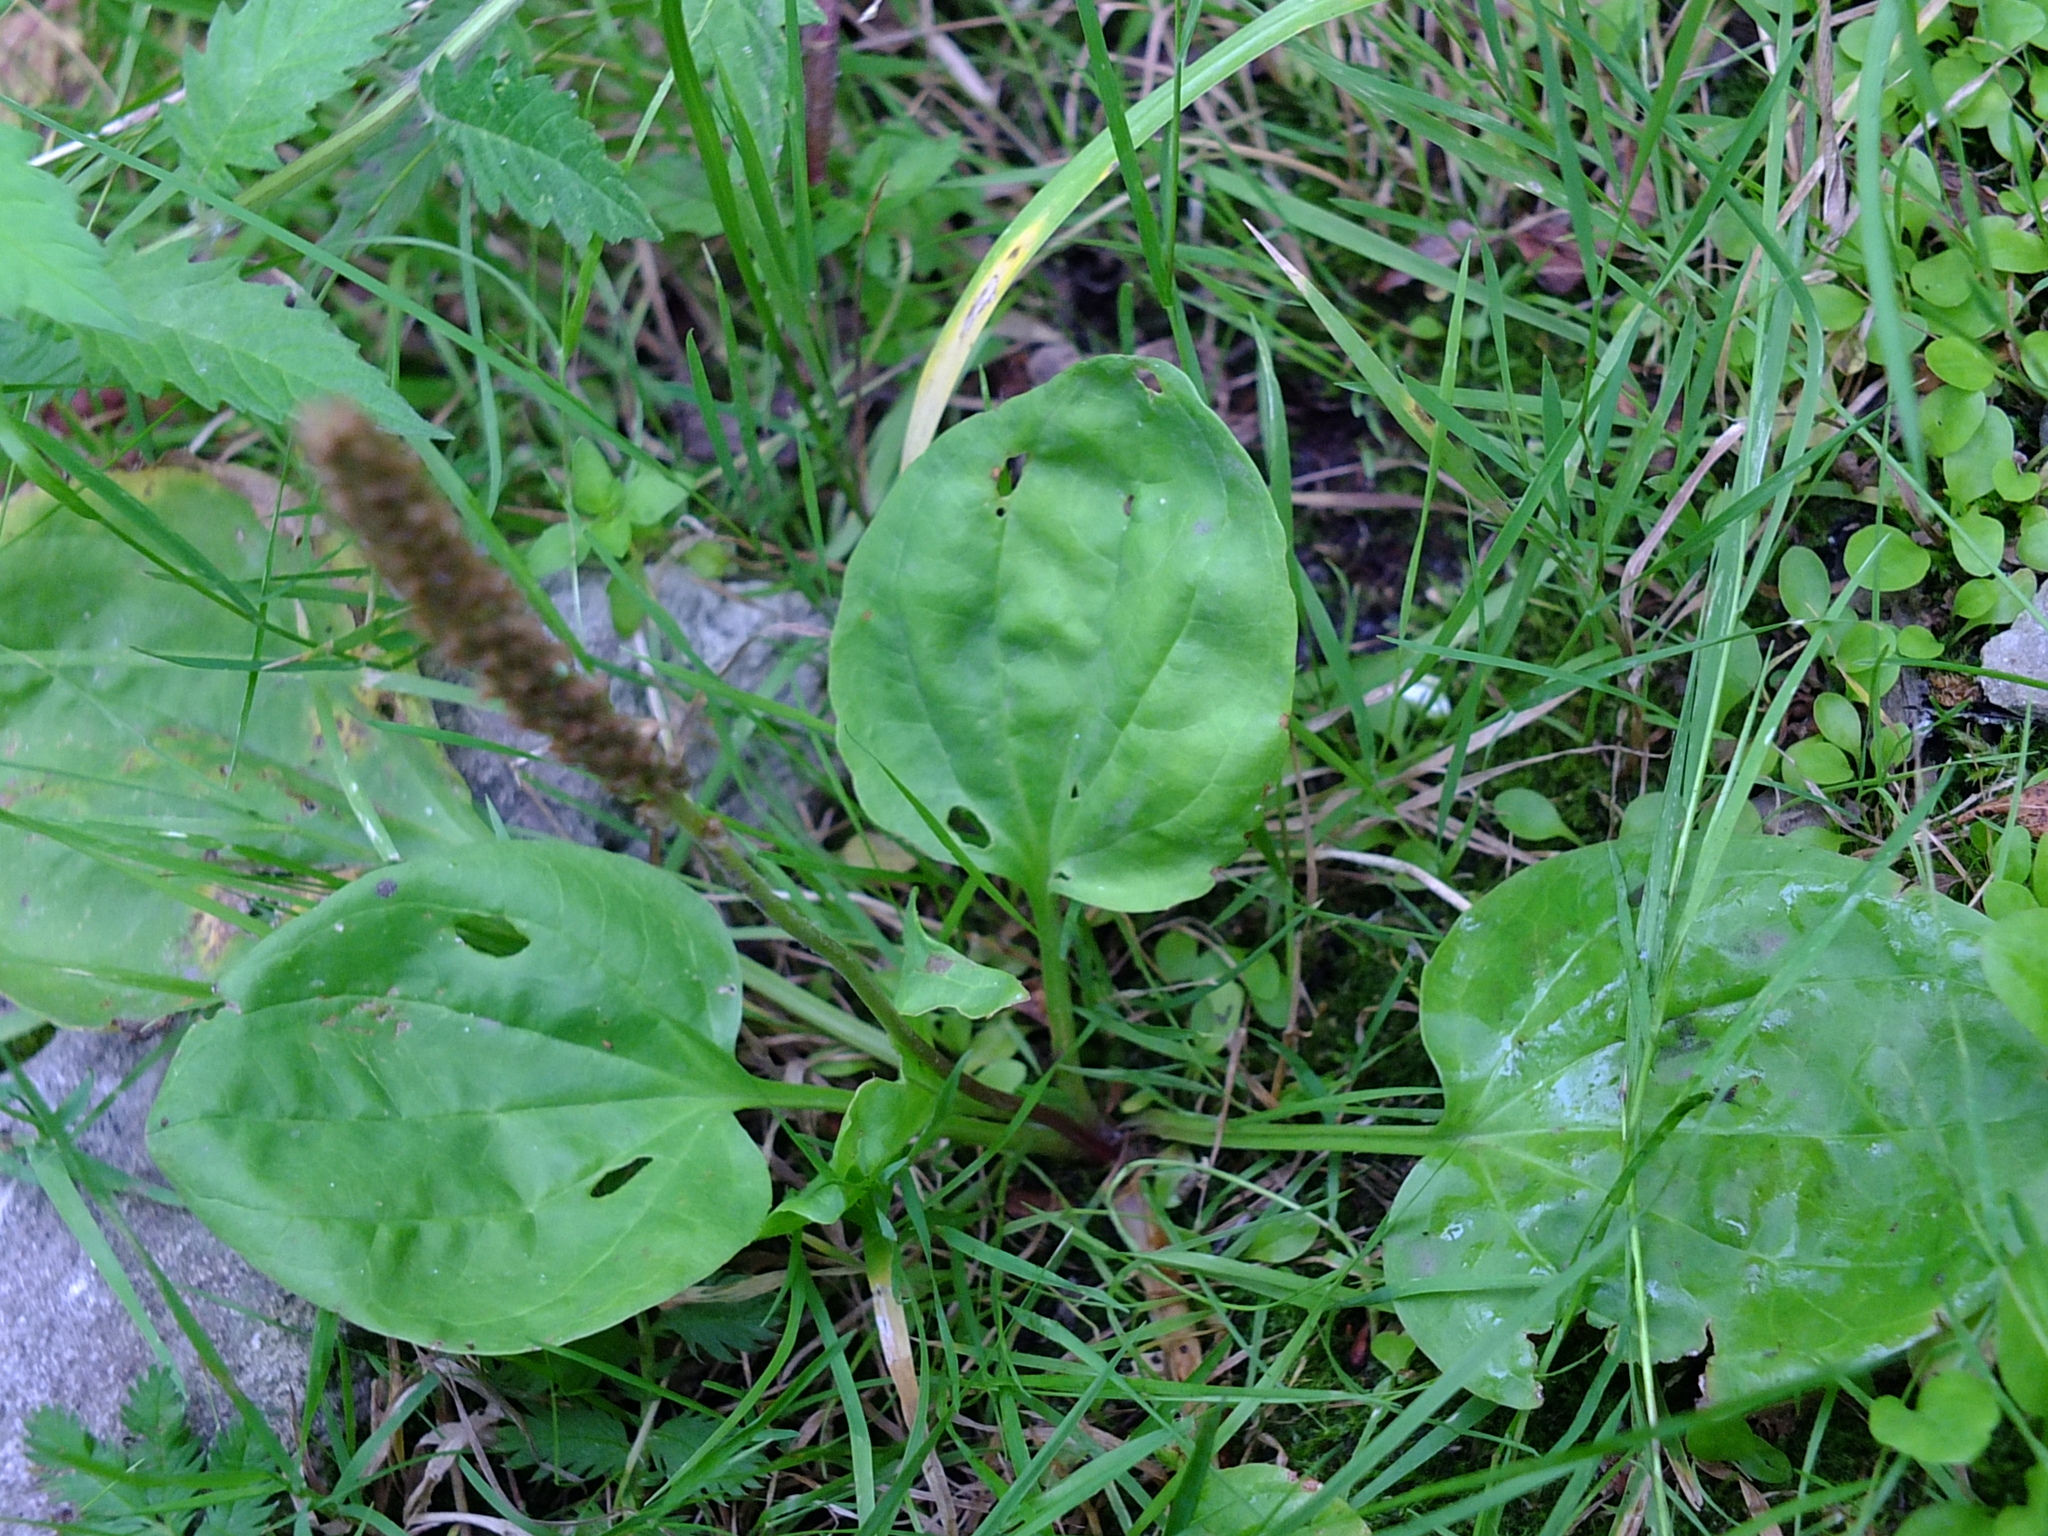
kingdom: Plantae
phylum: Tracheophyta
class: Magnoliopsida
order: Lamiales
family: Plantaginaceae
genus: Plantago
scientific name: Plantago major
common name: Common plantain
